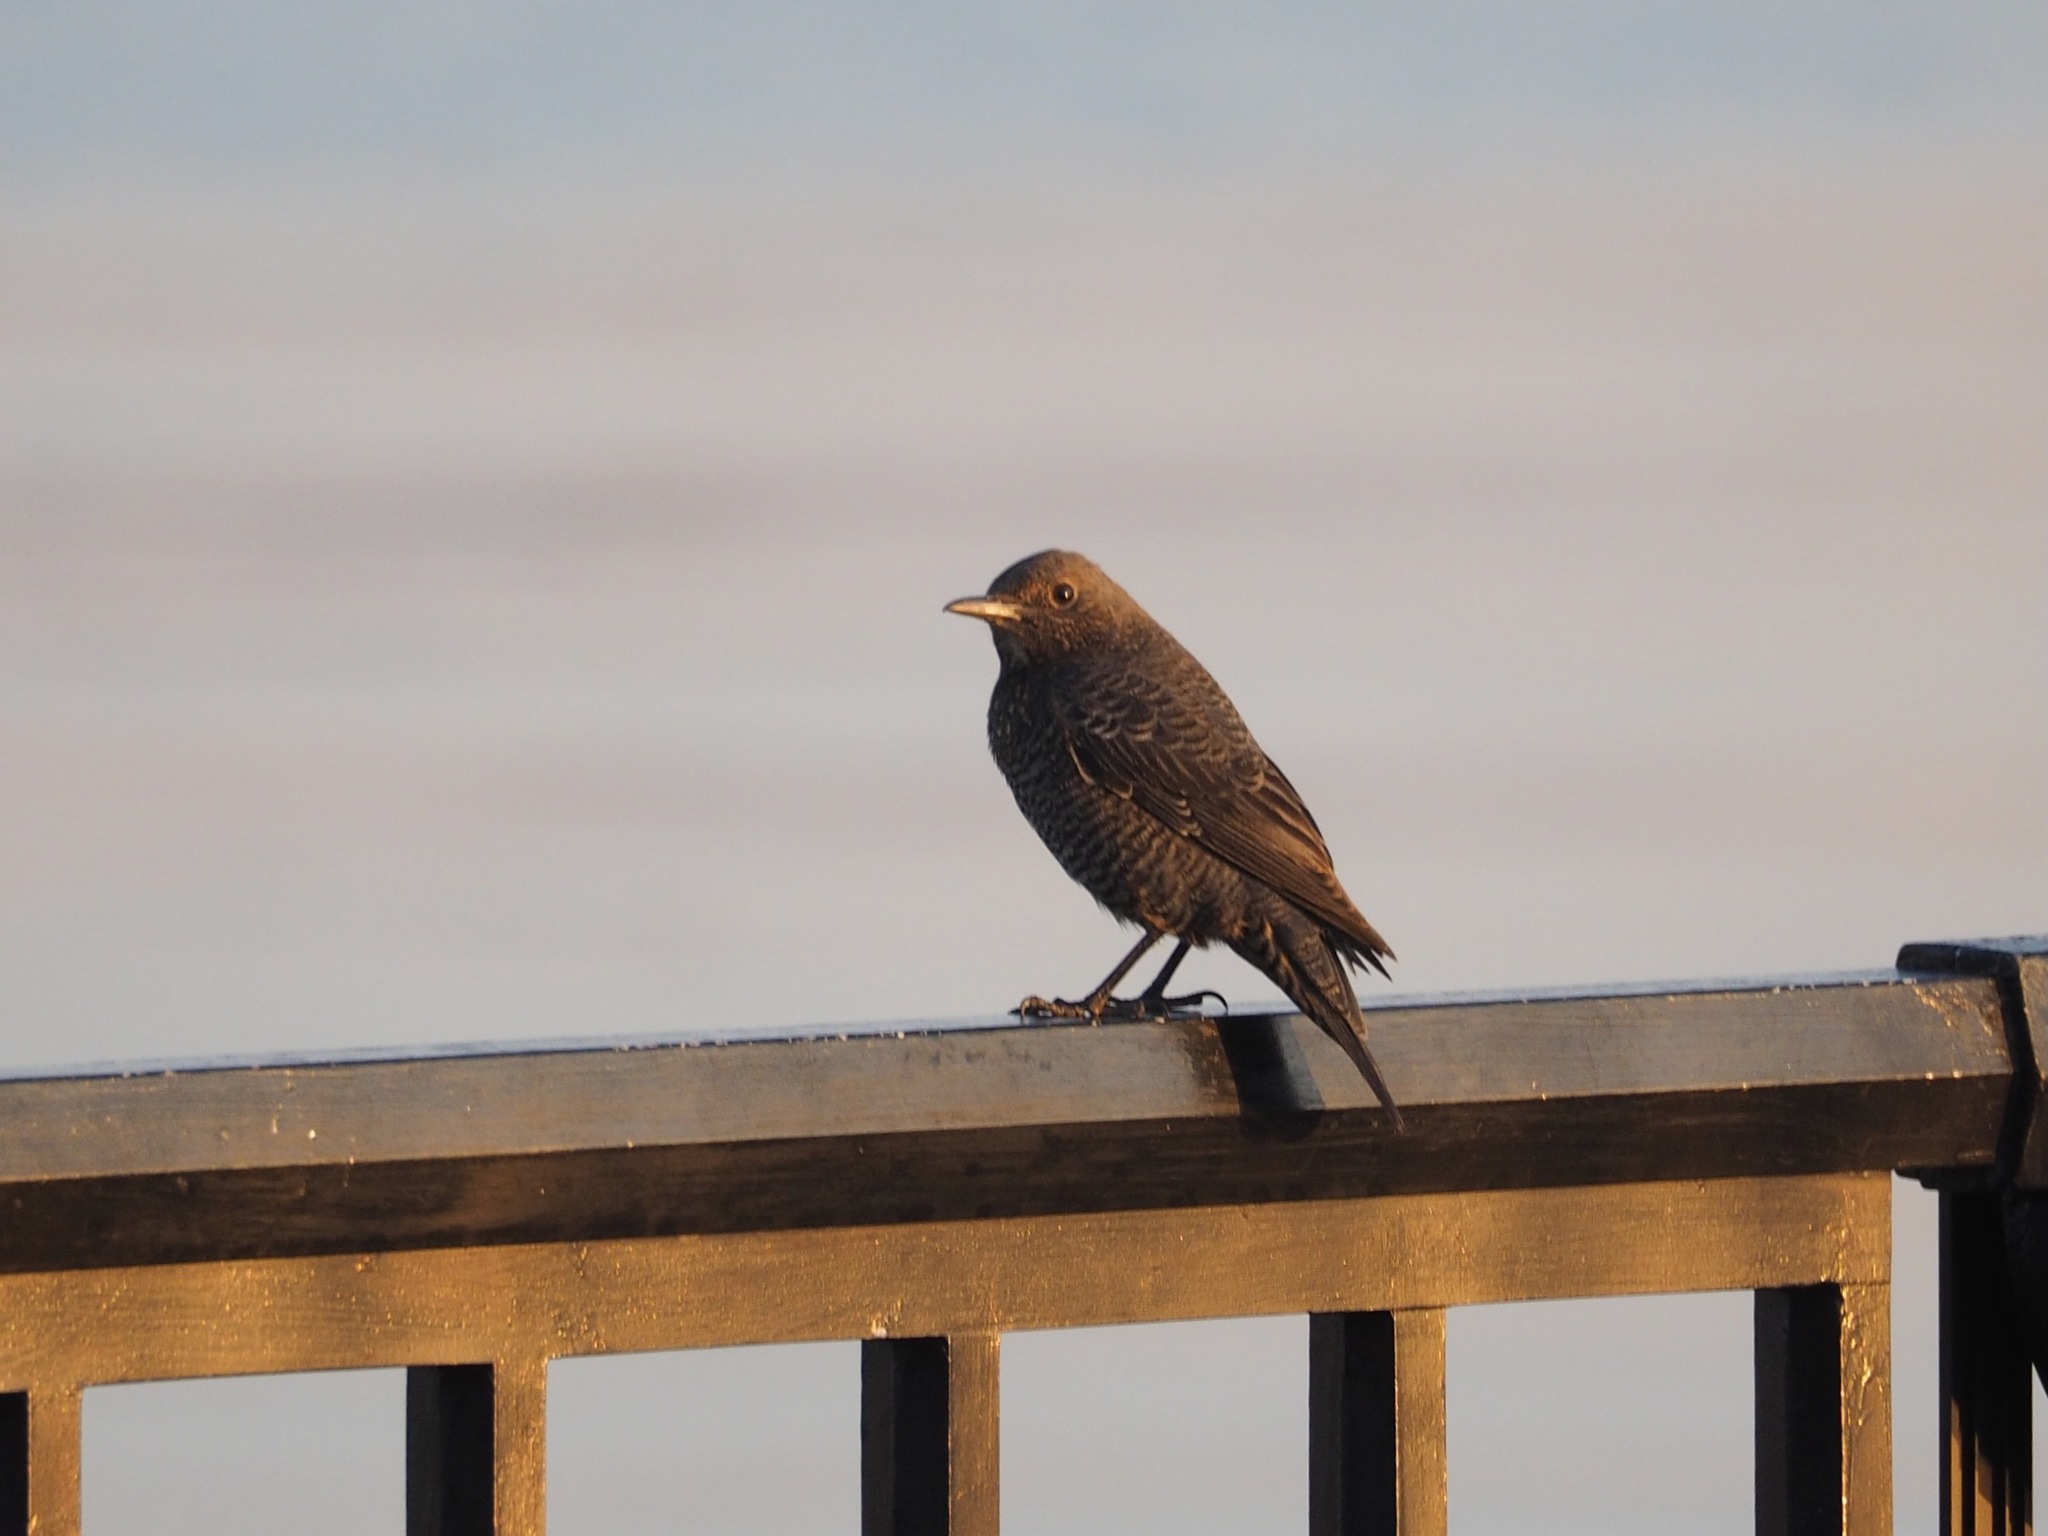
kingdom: Animalia
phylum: Chordata
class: Aves
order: Passeriformes
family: Muscicapidae
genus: Monticola
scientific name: Monticola solitarius
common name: Blue rock thrush
